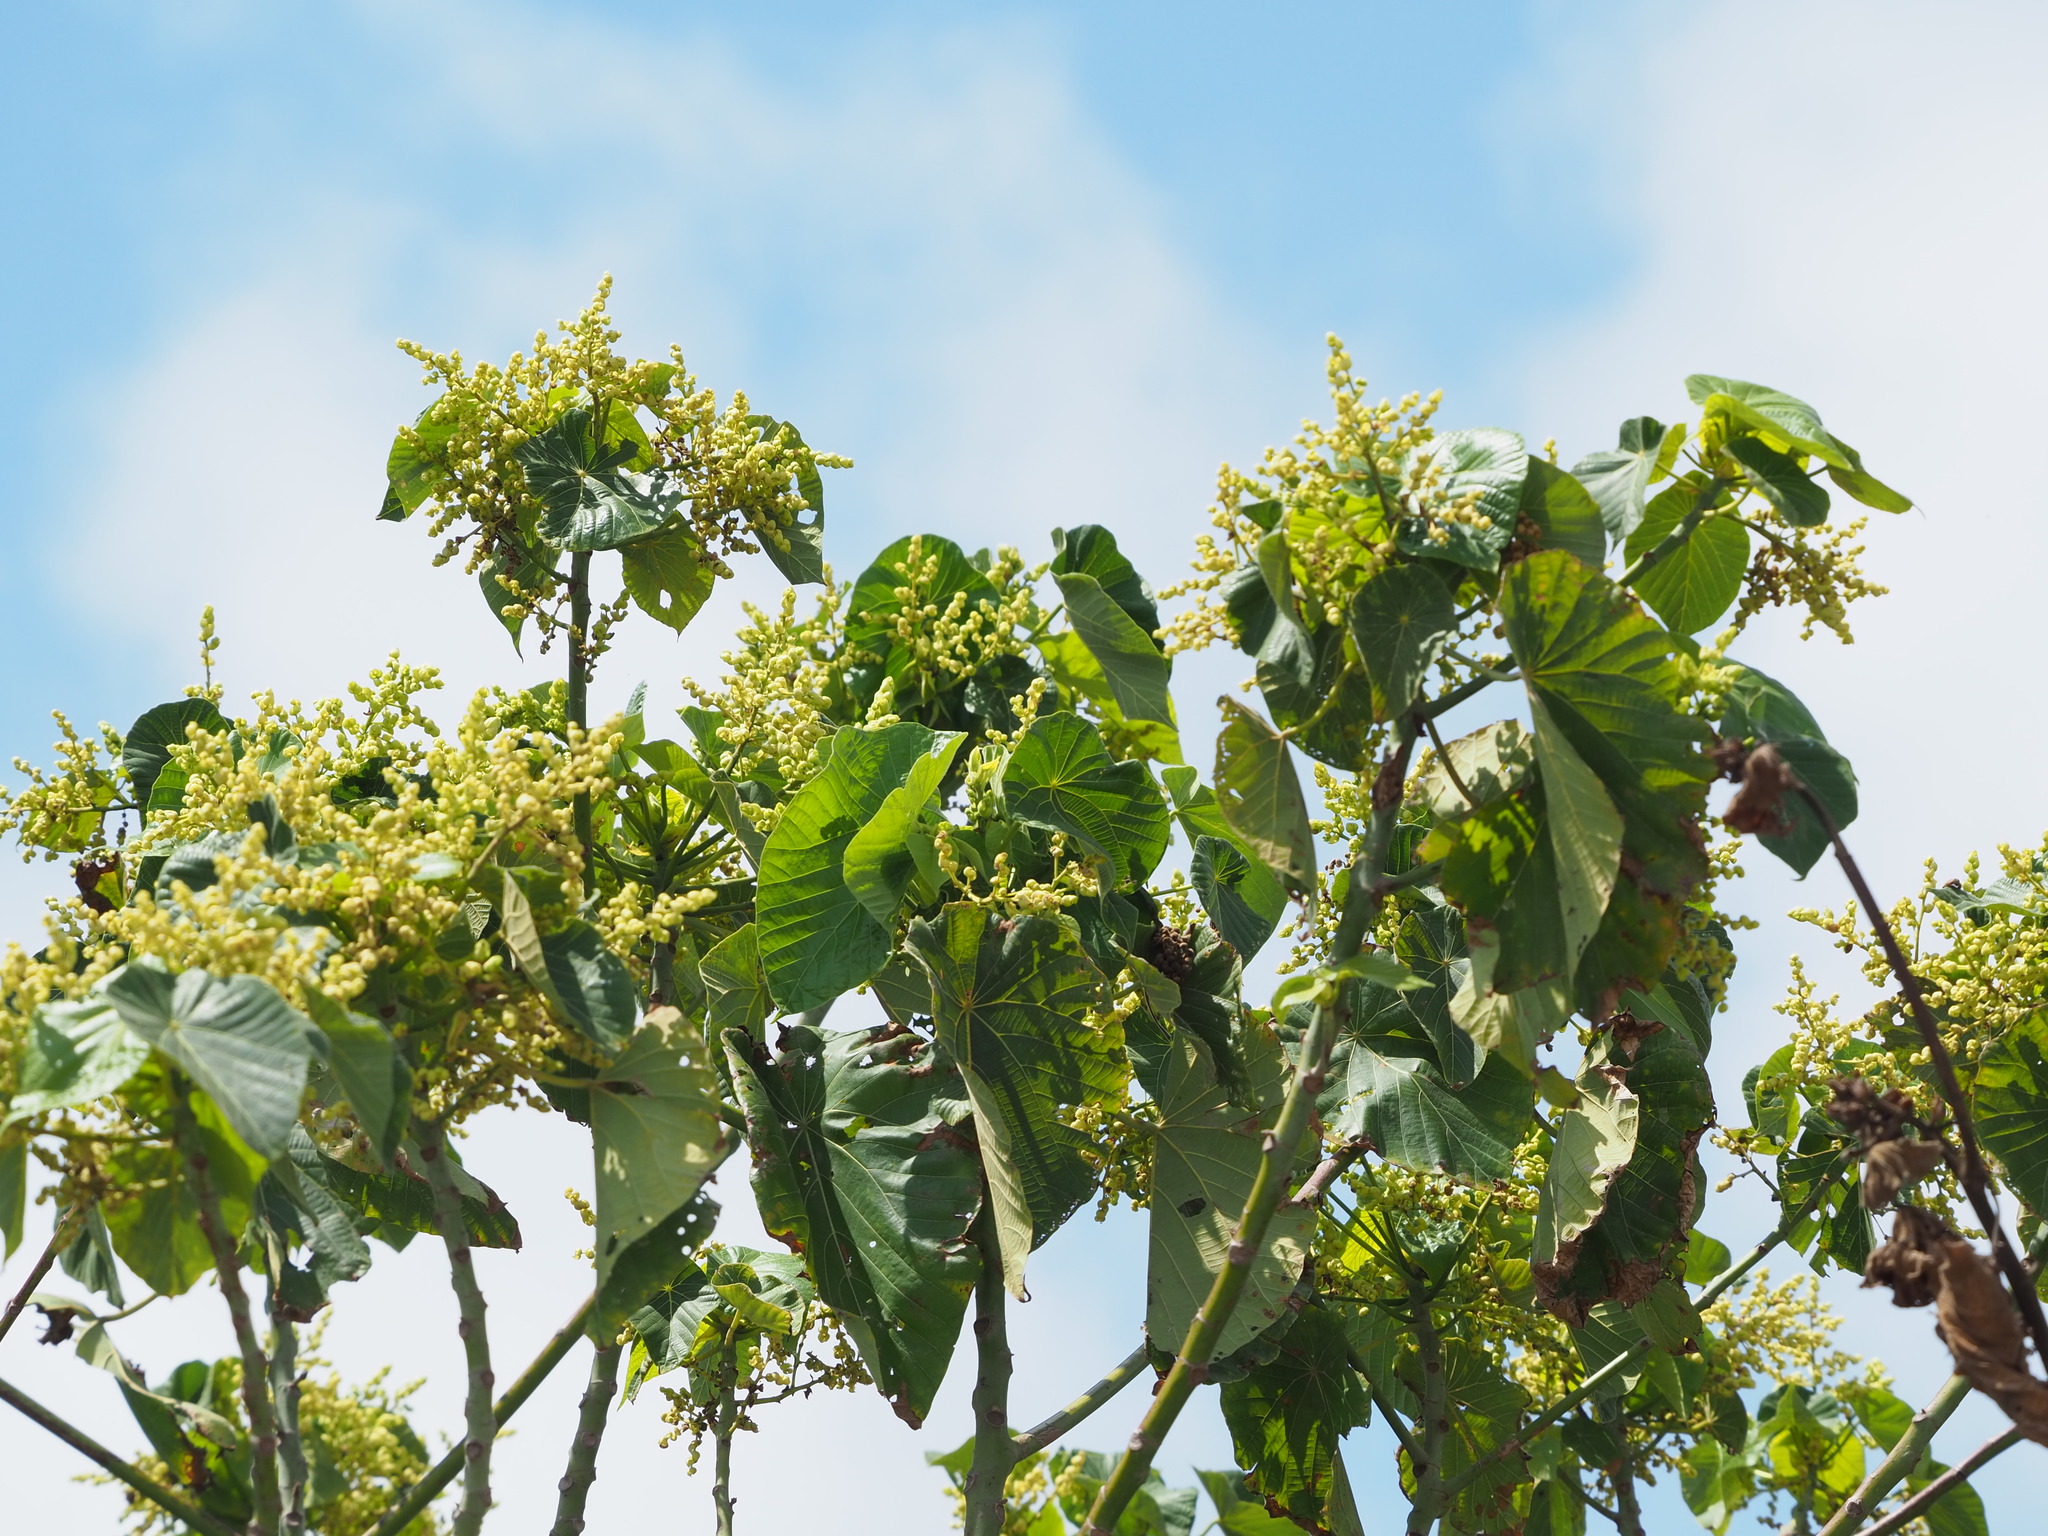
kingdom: Plantae
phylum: Tracheophyta
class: Magnoliopsida
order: Malpighiales
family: Euphorbiaceae
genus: Macaranga
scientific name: Macaranga tanarius
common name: Parasol leaf tree
